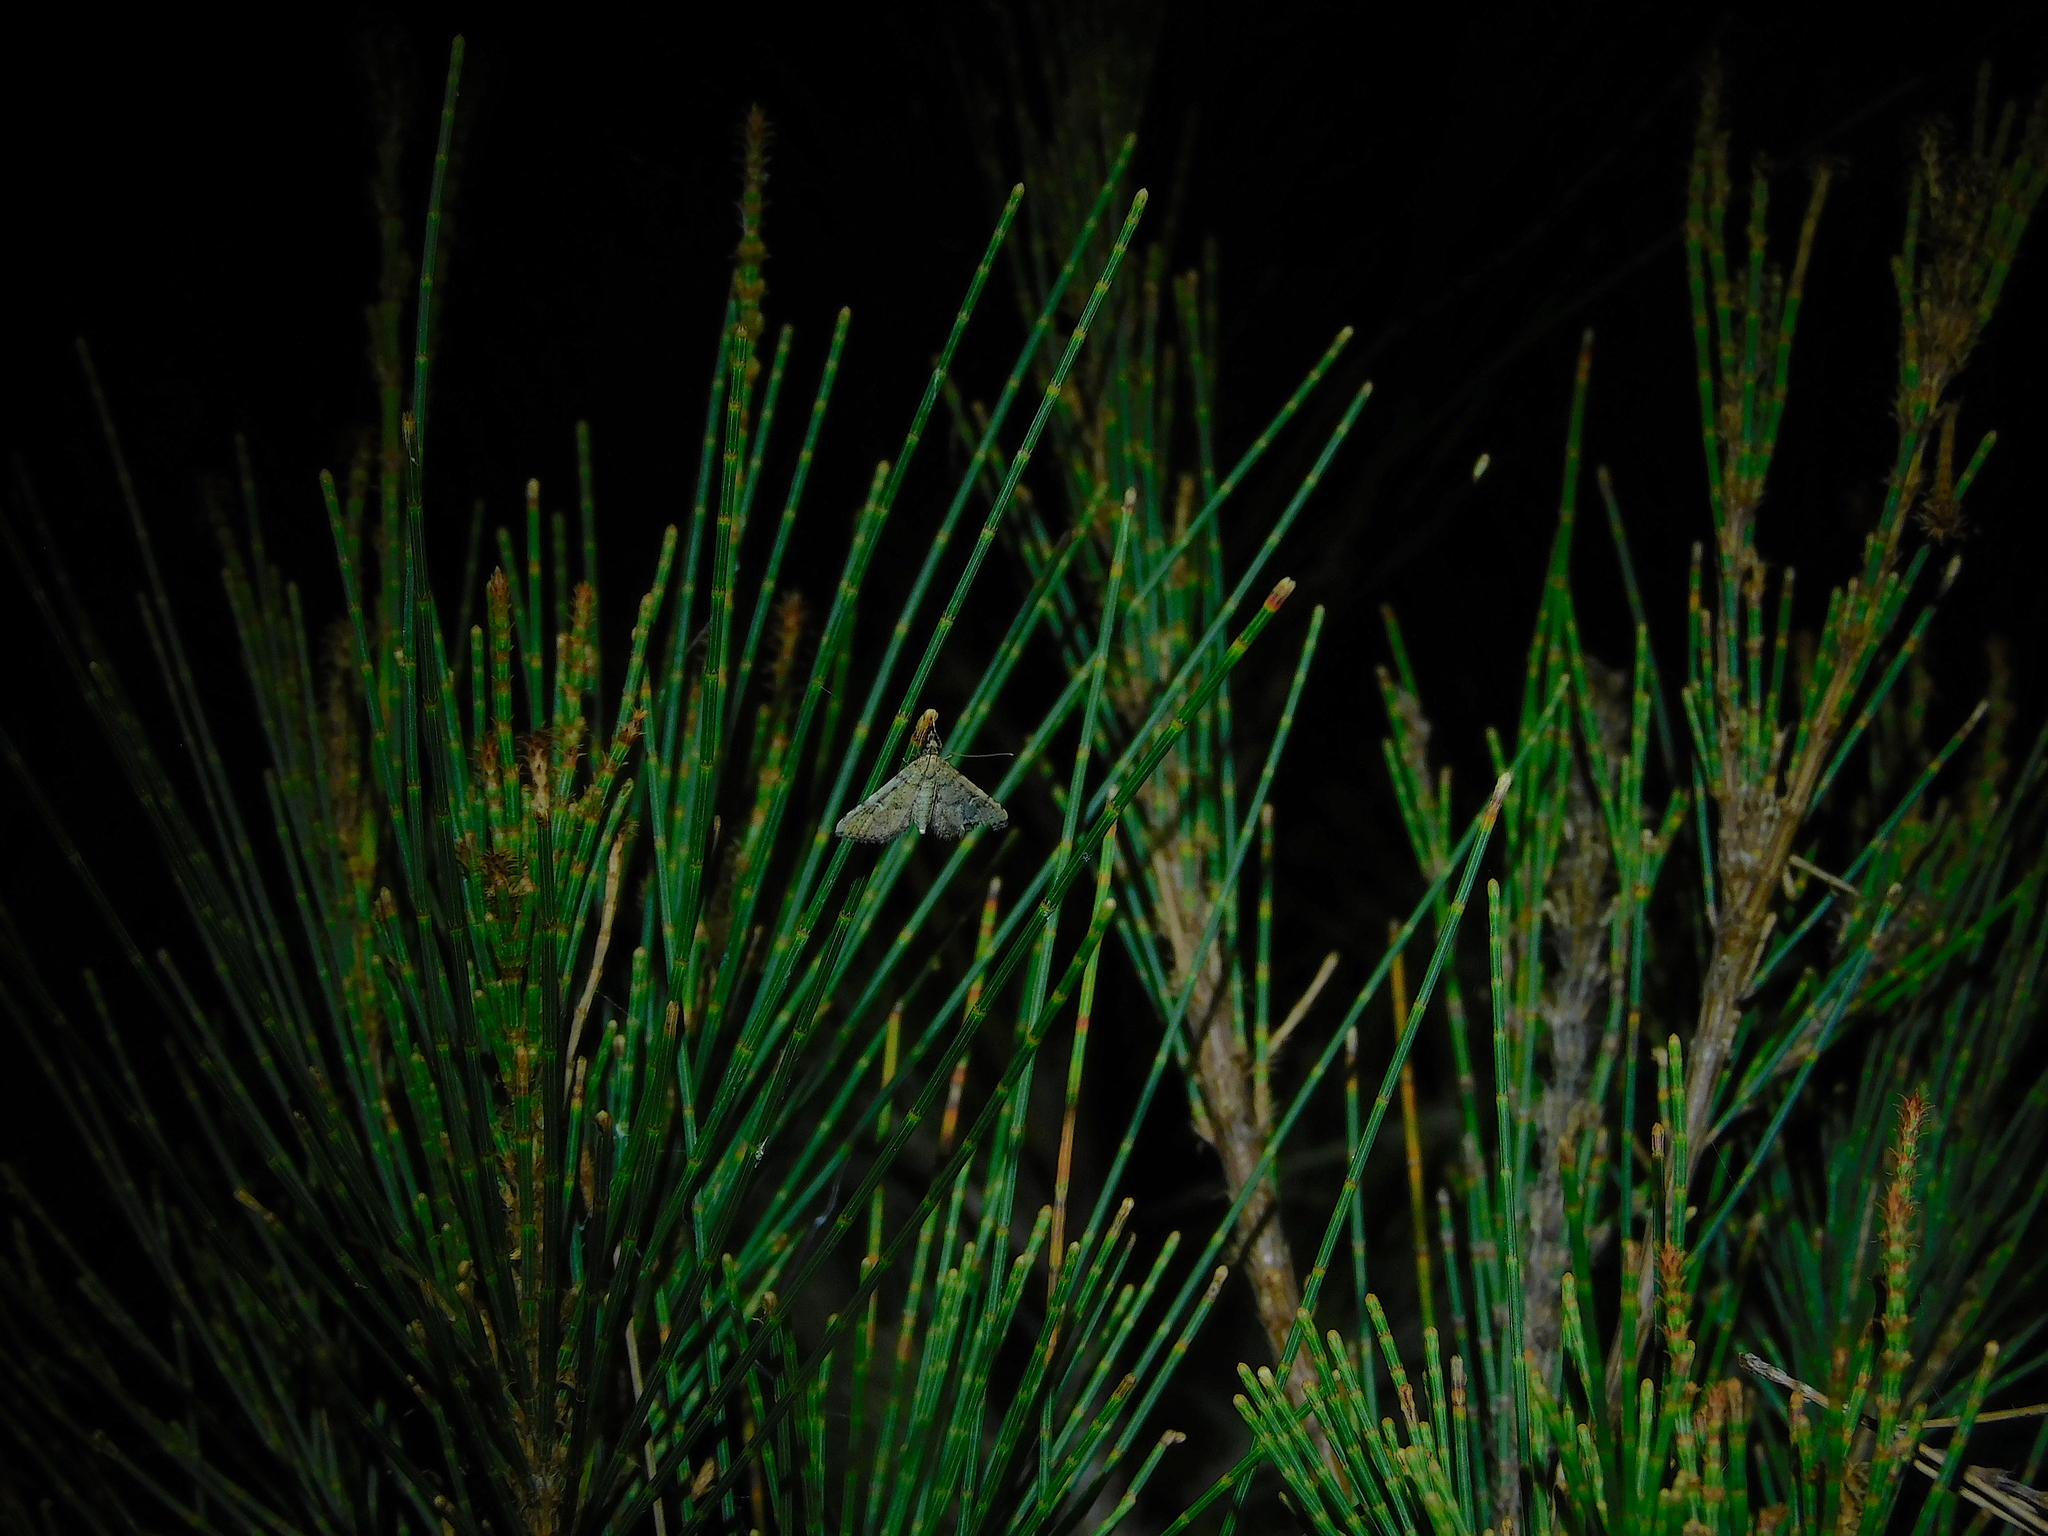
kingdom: Animalia
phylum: Arthropoda
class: Insecta
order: Lepidoptera
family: Crambidae
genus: Metasia
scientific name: Metasia capnochroa
